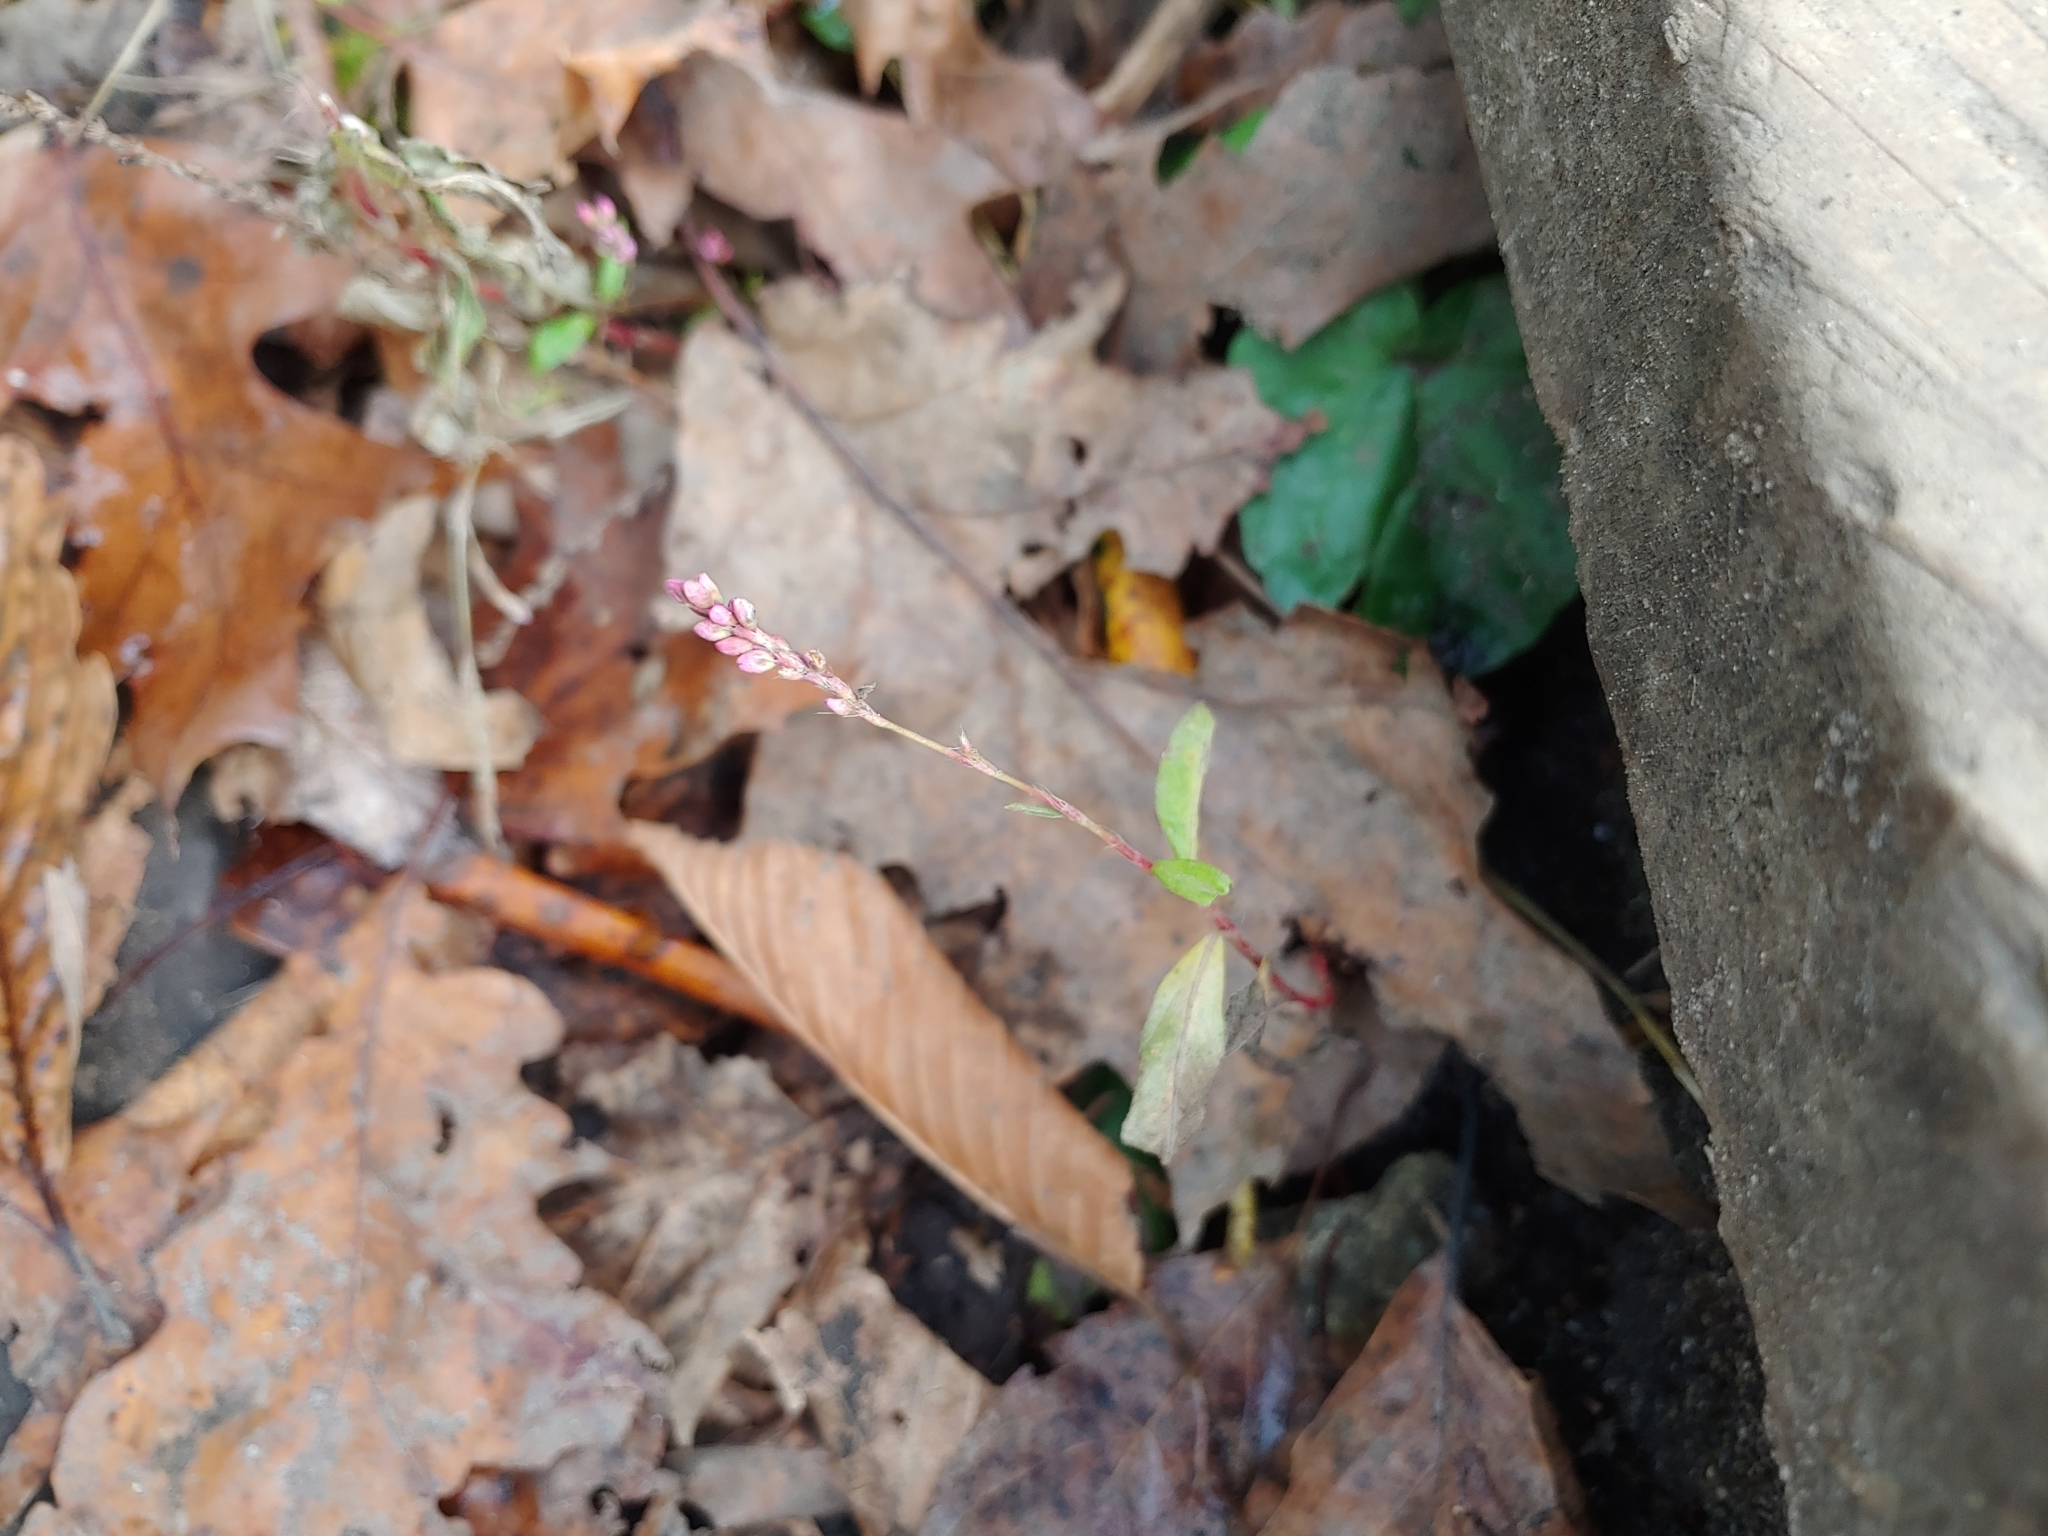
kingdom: Plantae
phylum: Tracheophyta
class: Magnoliopsida
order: Caryophyllales
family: Polygonaceae
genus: Persicaria
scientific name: Persicaria longiseta
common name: Bristly lady's-thumb
